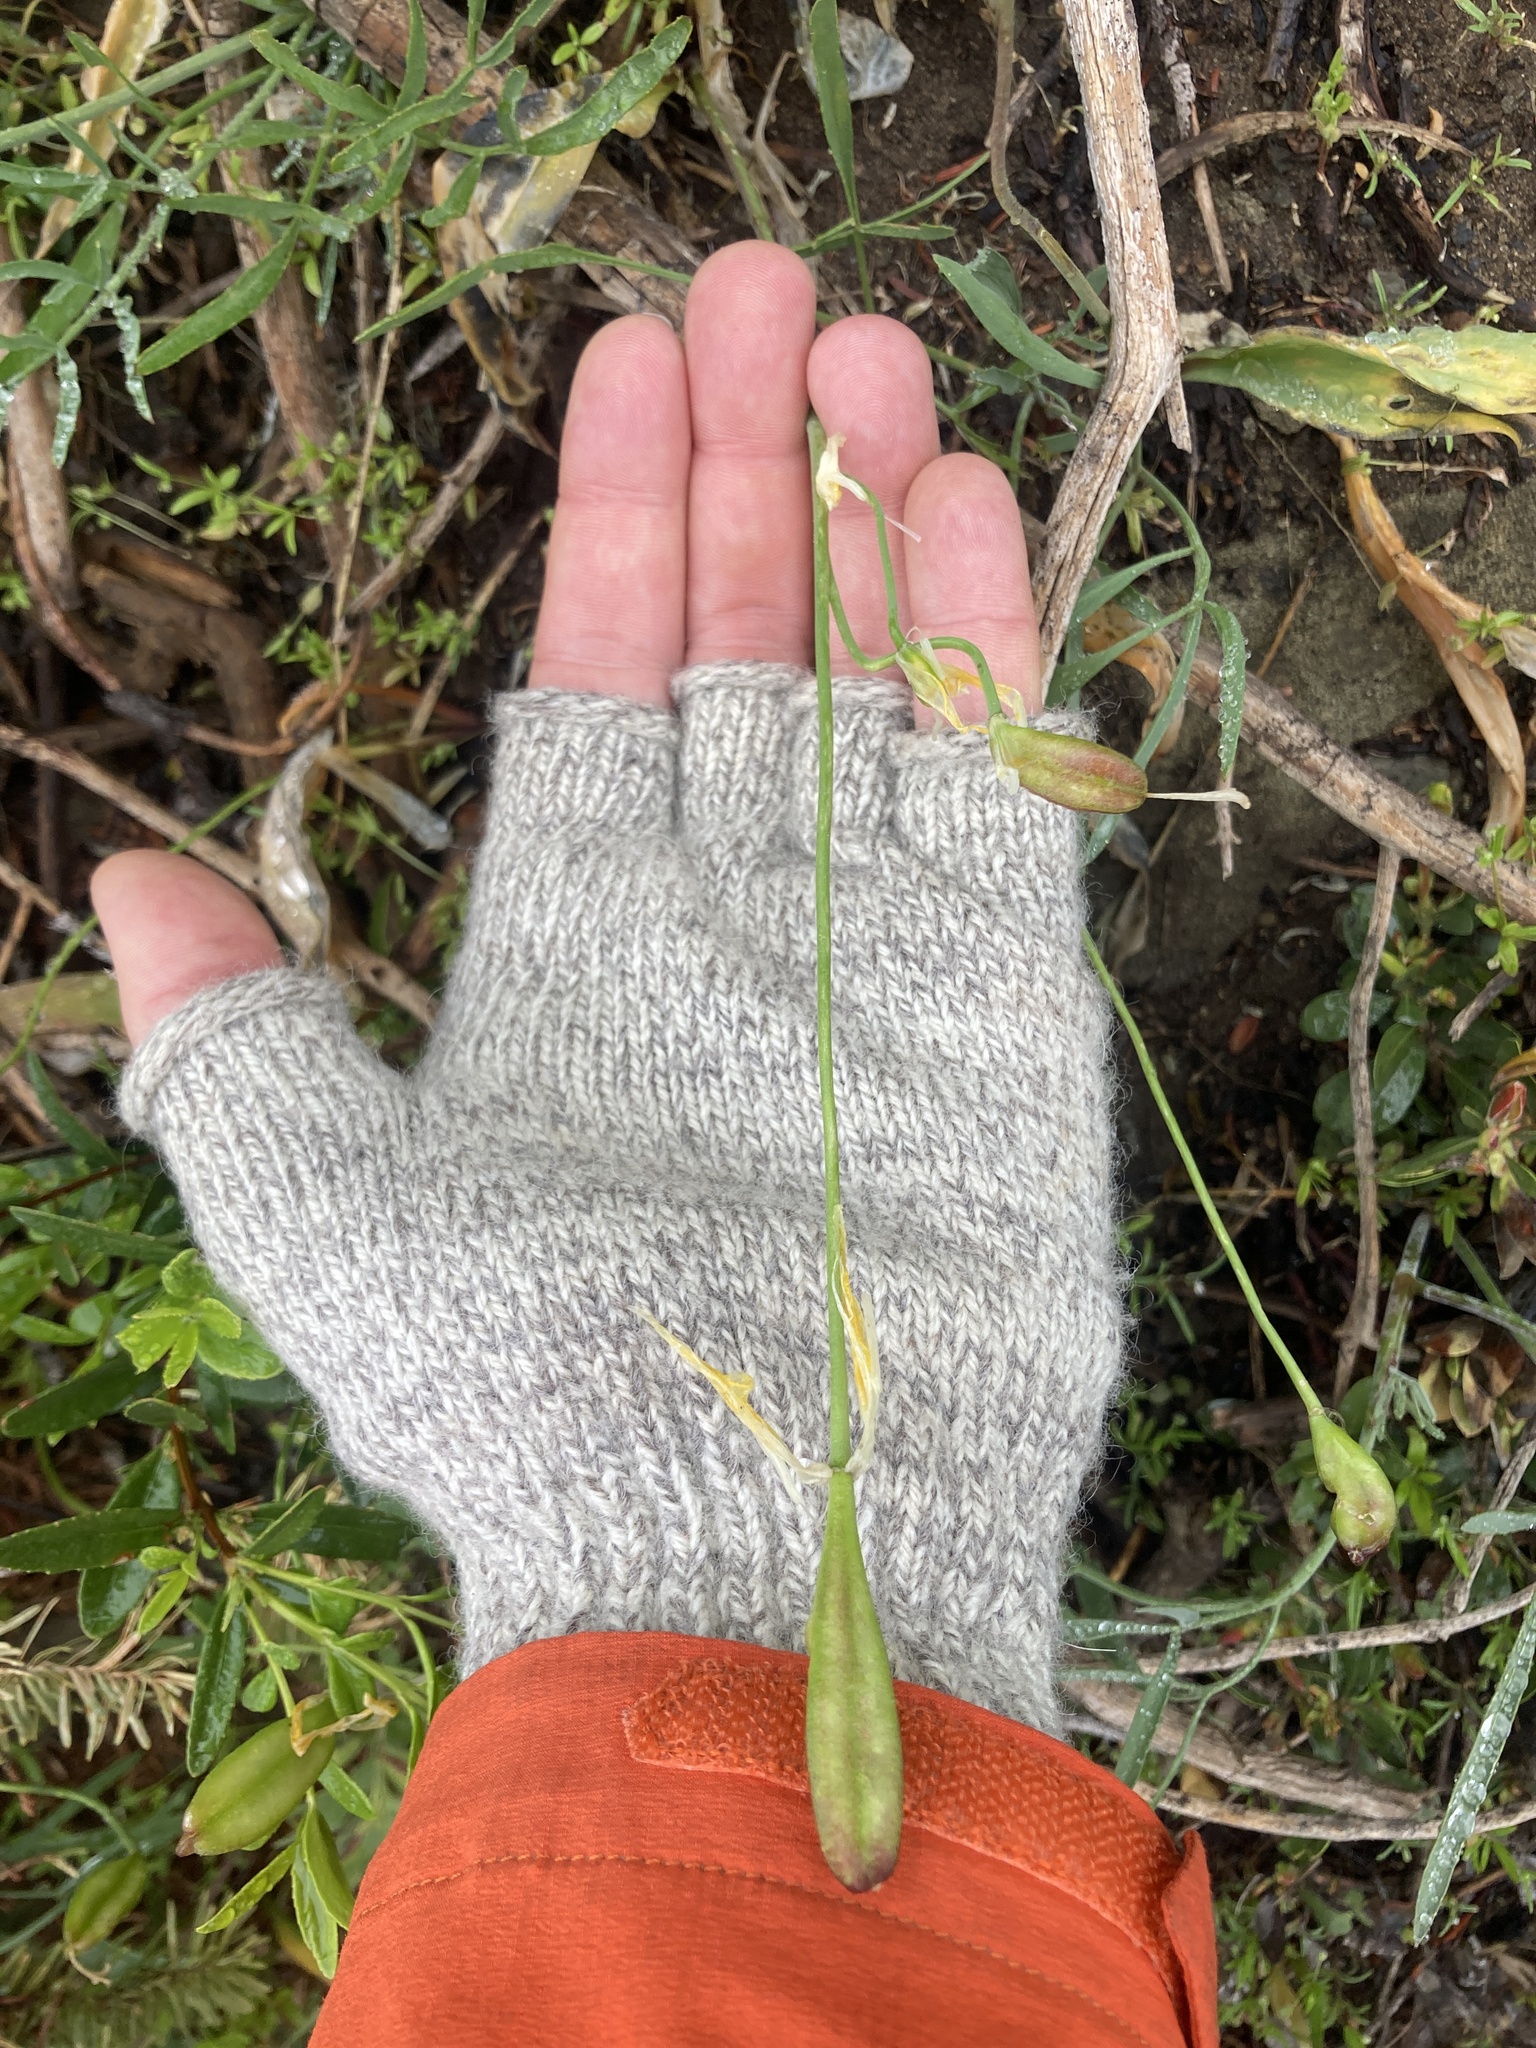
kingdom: Plantae
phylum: Tracheophyta
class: Liliopsida
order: Liliales
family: Liliaceae
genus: Erythronium
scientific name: Erythronium grandiflorum
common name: Avalanche-lily
